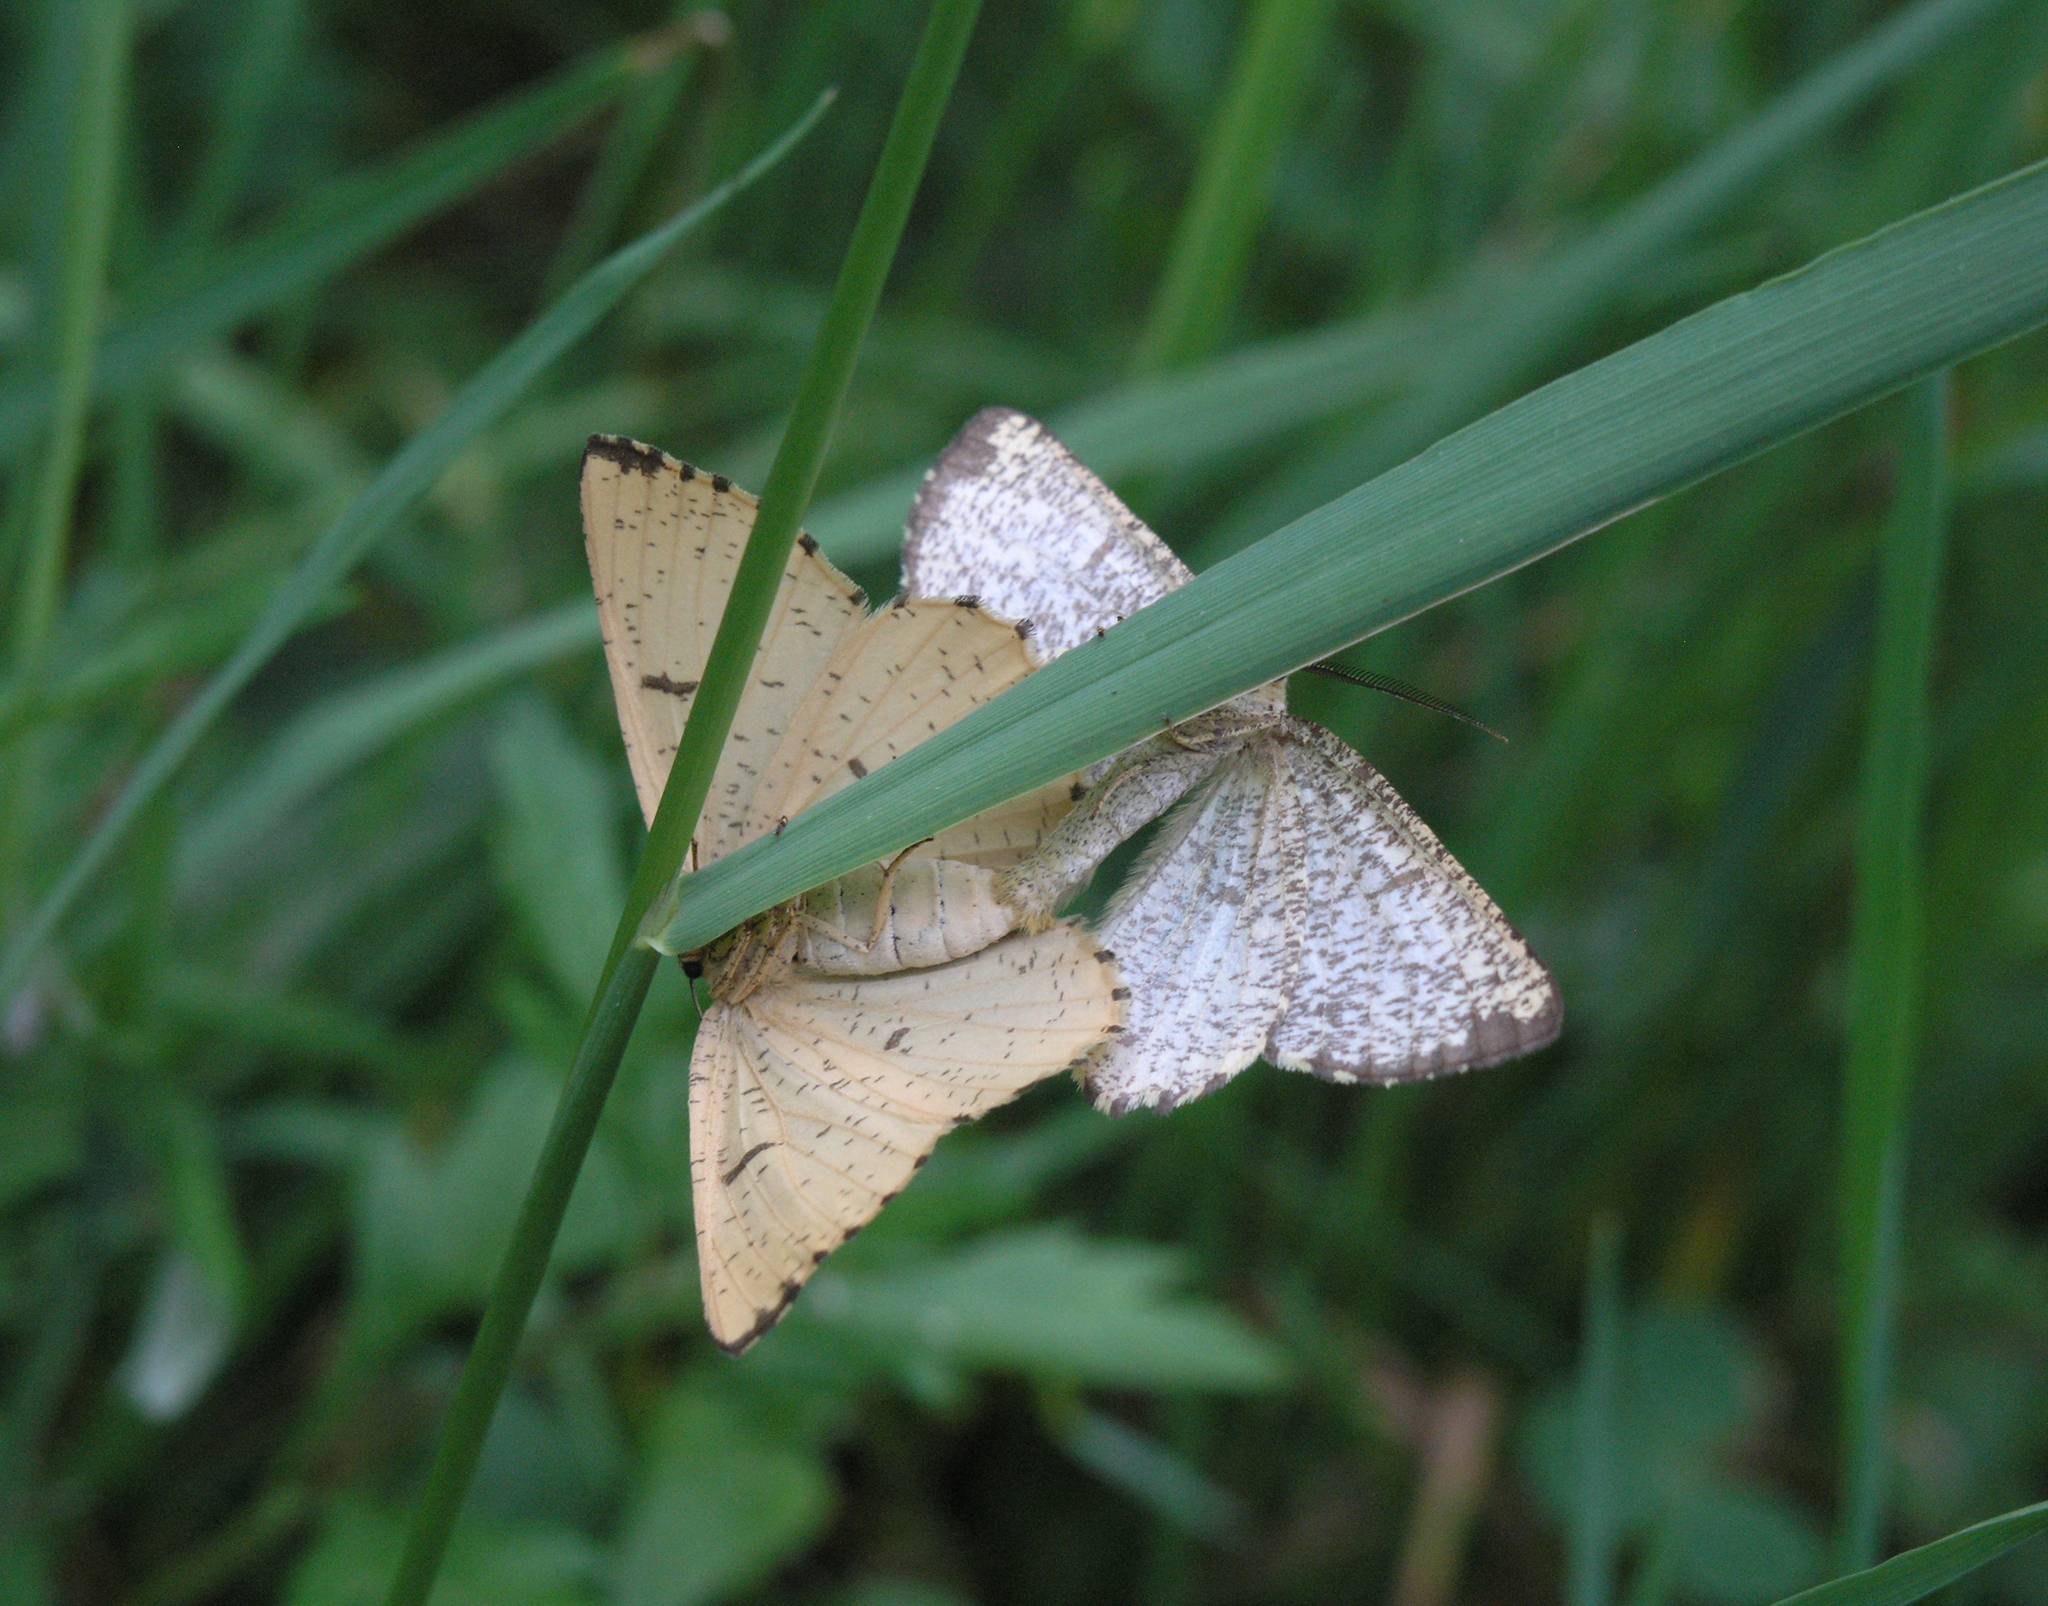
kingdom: Animalia
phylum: Arthropoda
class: Insecta
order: Lepidoptera
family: Geometridae
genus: Angerona
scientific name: Angerona prunaria
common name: Orange moth
